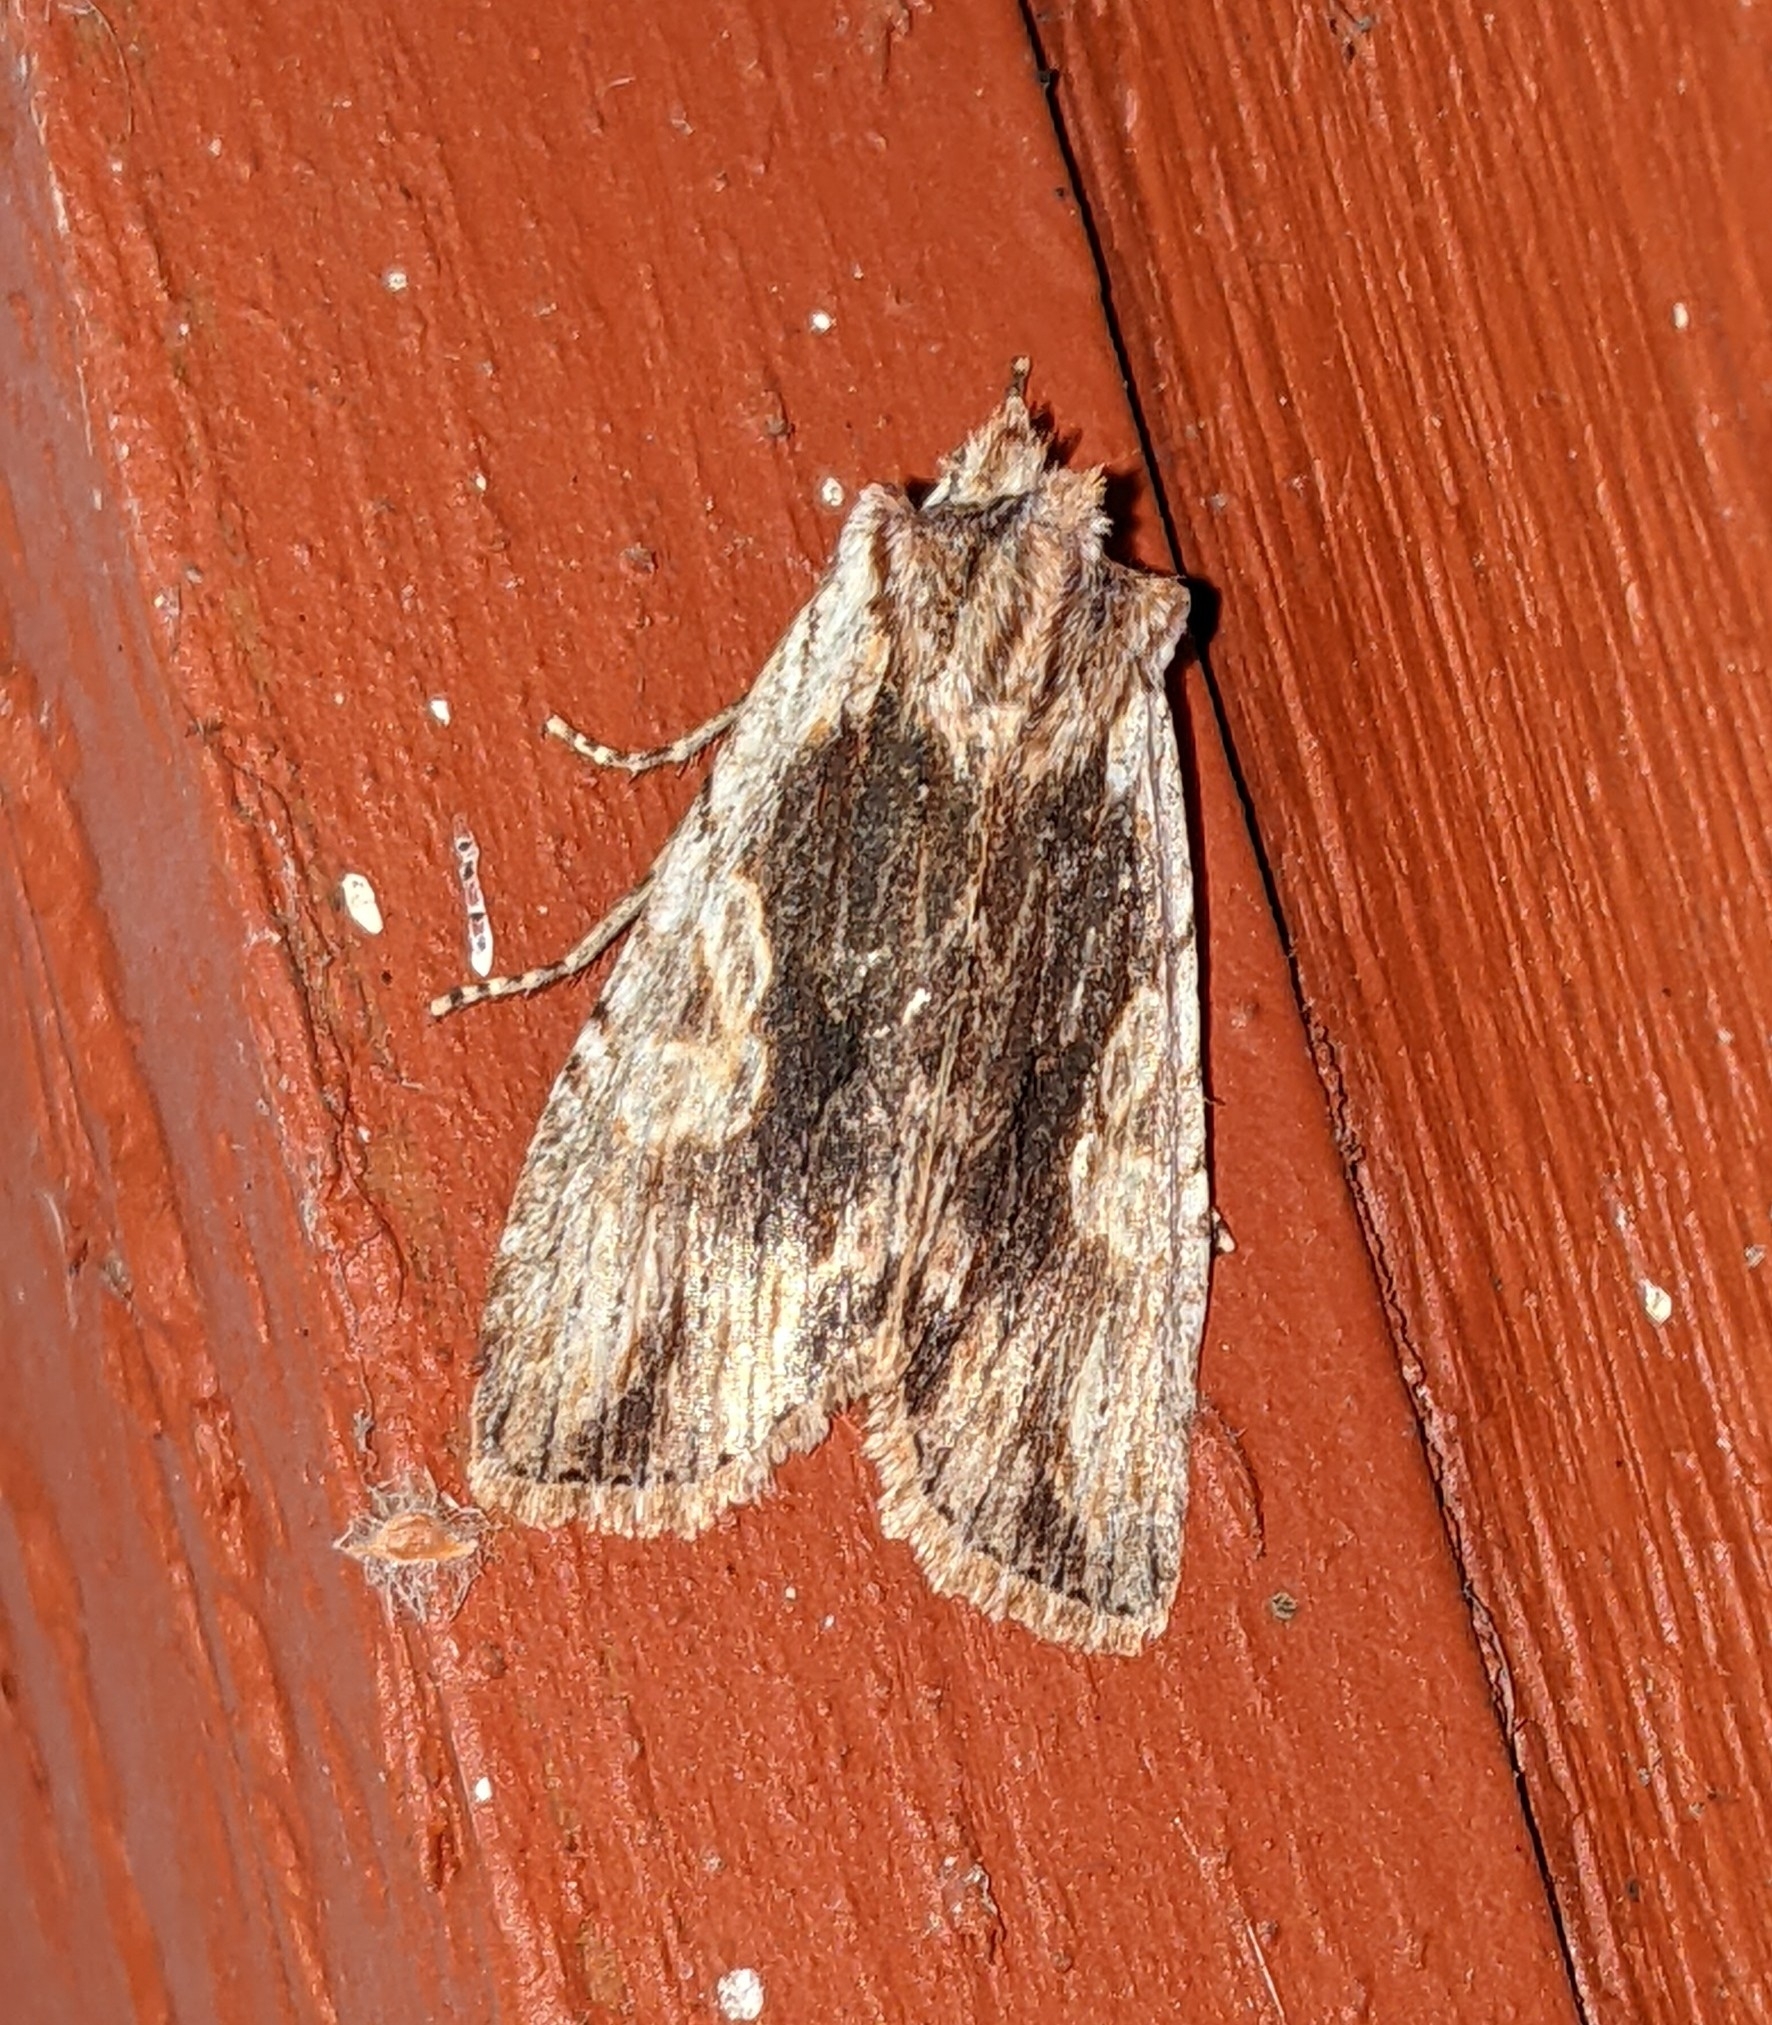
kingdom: Animalia
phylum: Arthropoda
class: Insecta
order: Lepidoptera
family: Noctuidae
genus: Lithophane
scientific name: Lithophane petulca
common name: Wanton pinion
